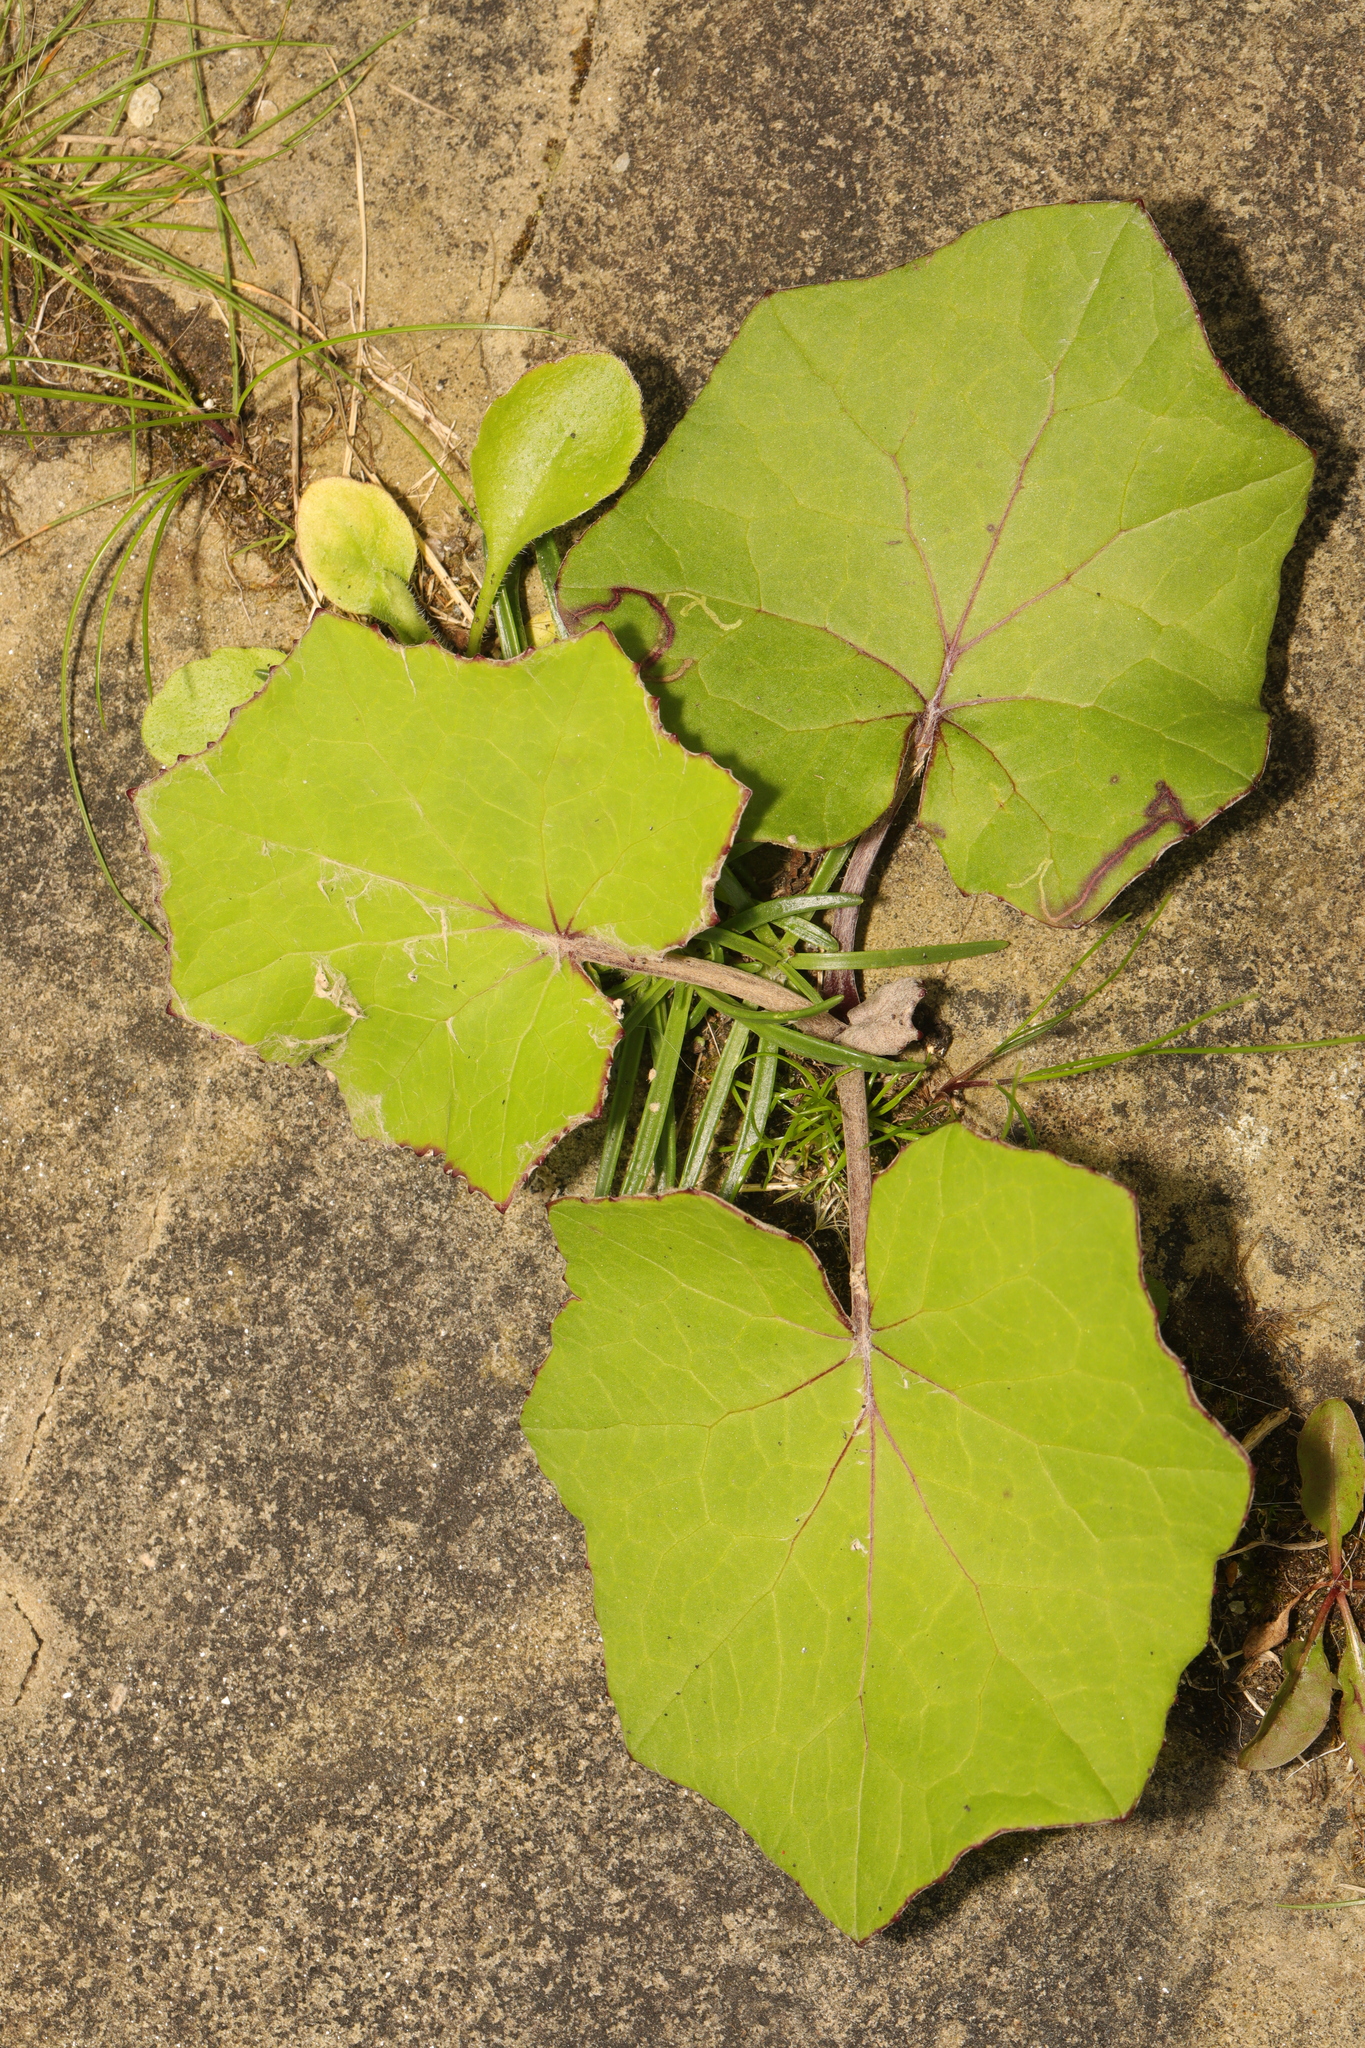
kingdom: Plantae
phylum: Tracheophyta
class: Magnoliopsida
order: Asterales
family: Asteraceae
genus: Tussilago
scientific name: Tussilago farfara
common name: Coltsfoot
